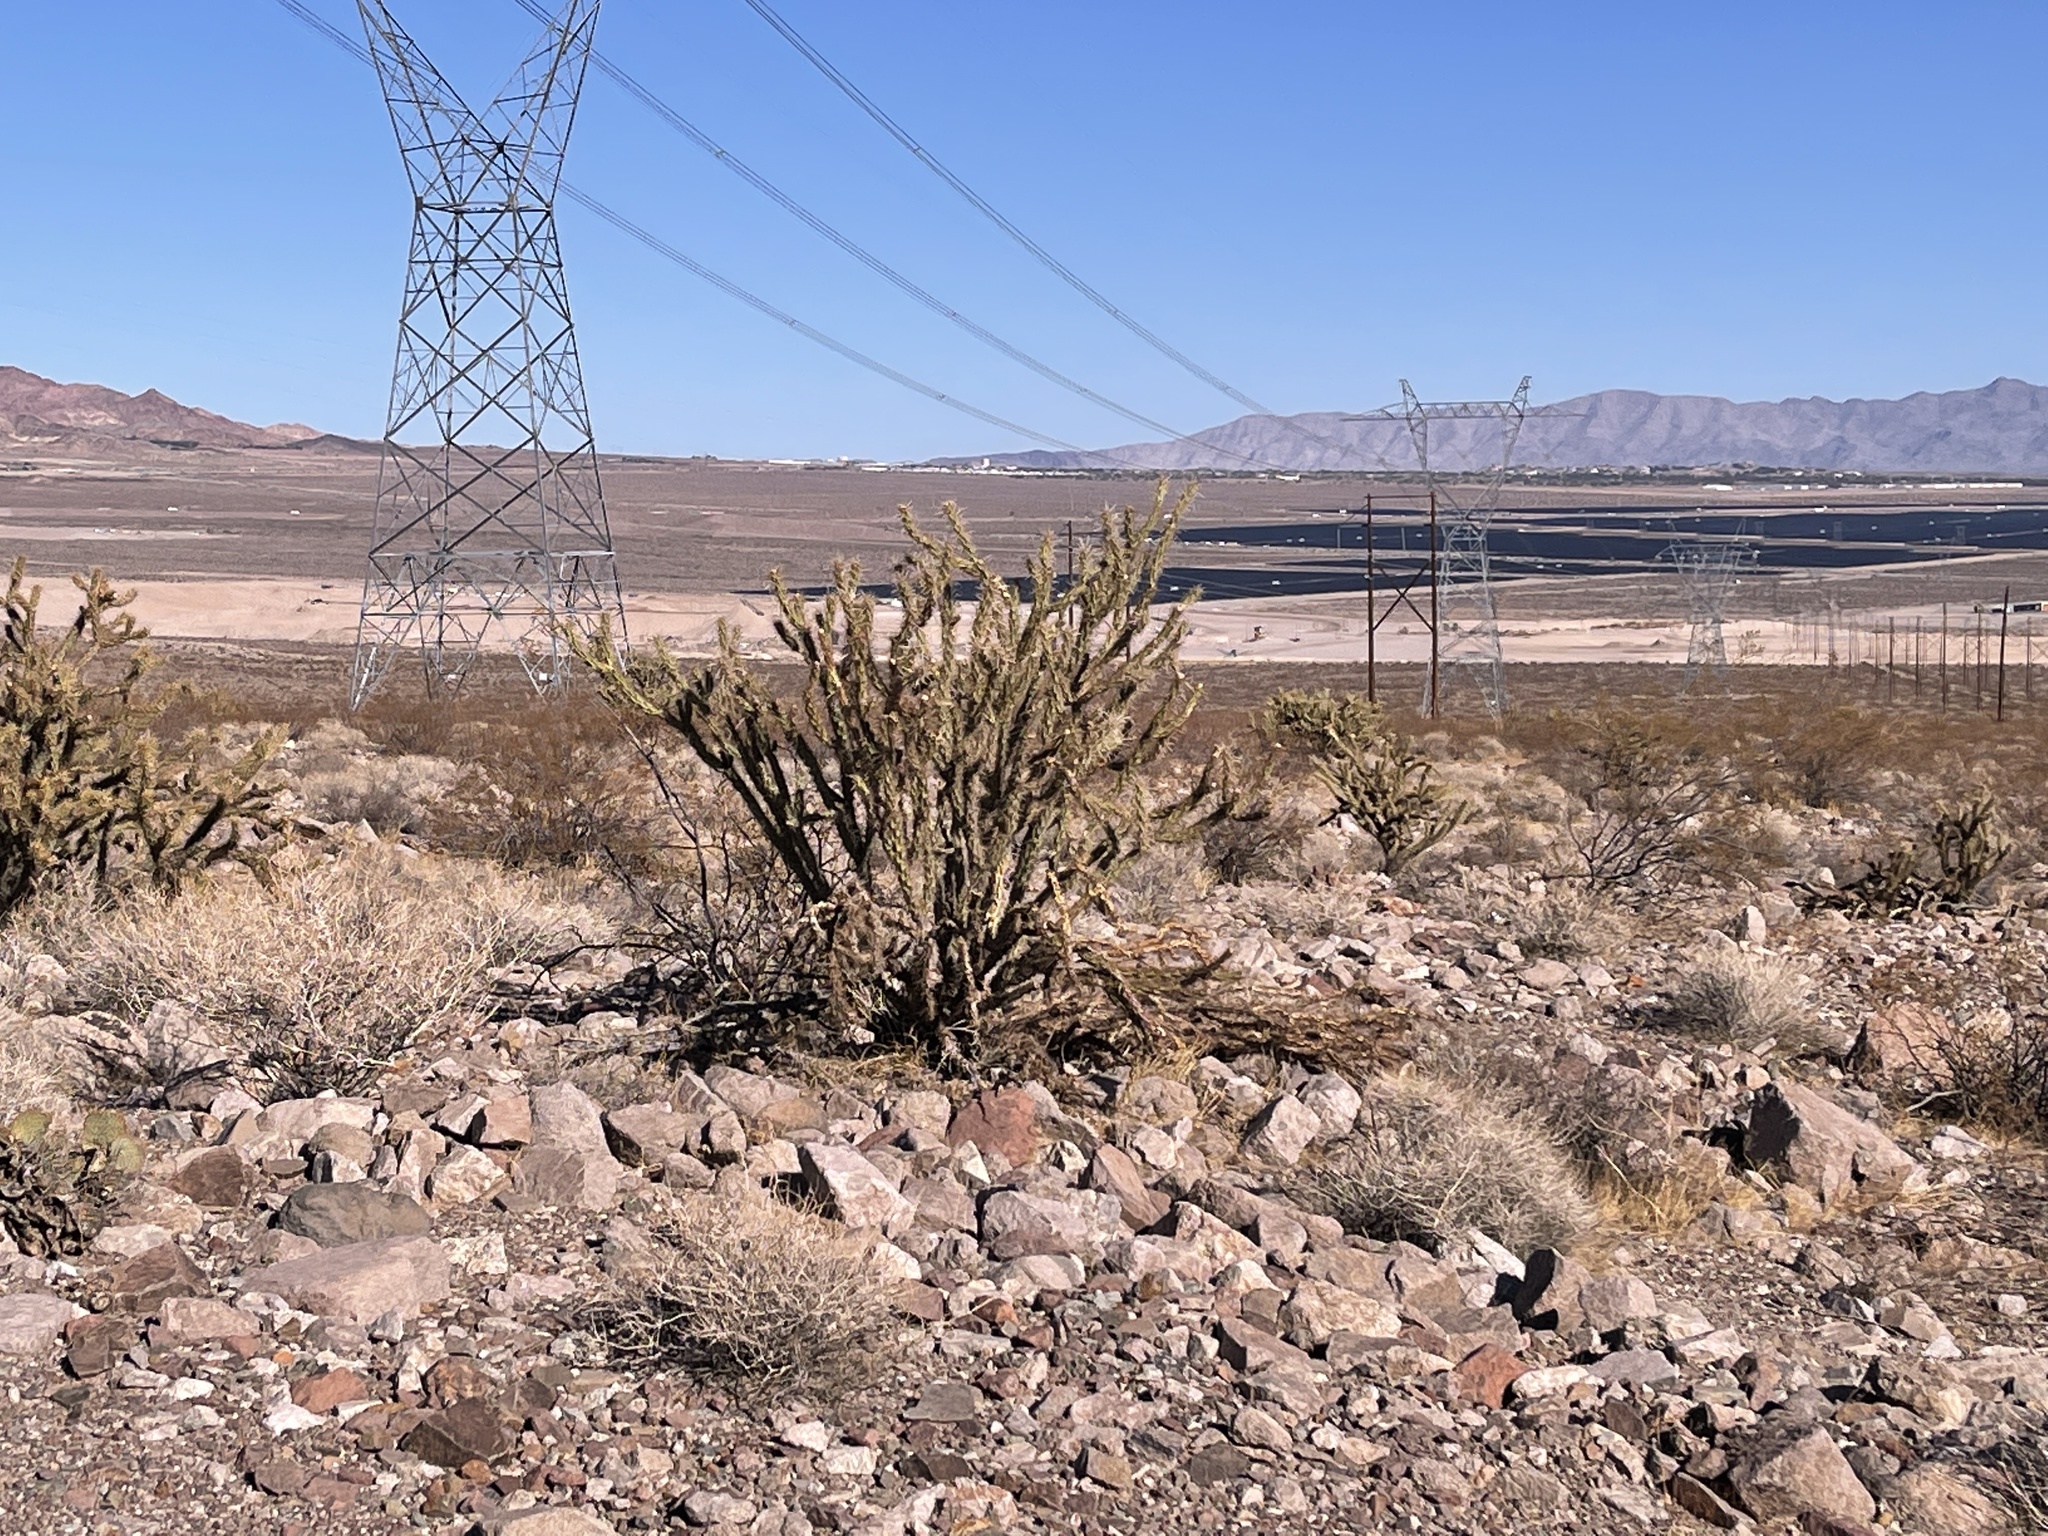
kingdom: Plantae
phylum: Tracheophyta
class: Magnoliopsida
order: Caryophyllales
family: Cactaceae
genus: Cylindropuntia
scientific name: Cylindropuntia acanthocarpa
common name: Buckhorn cholla
